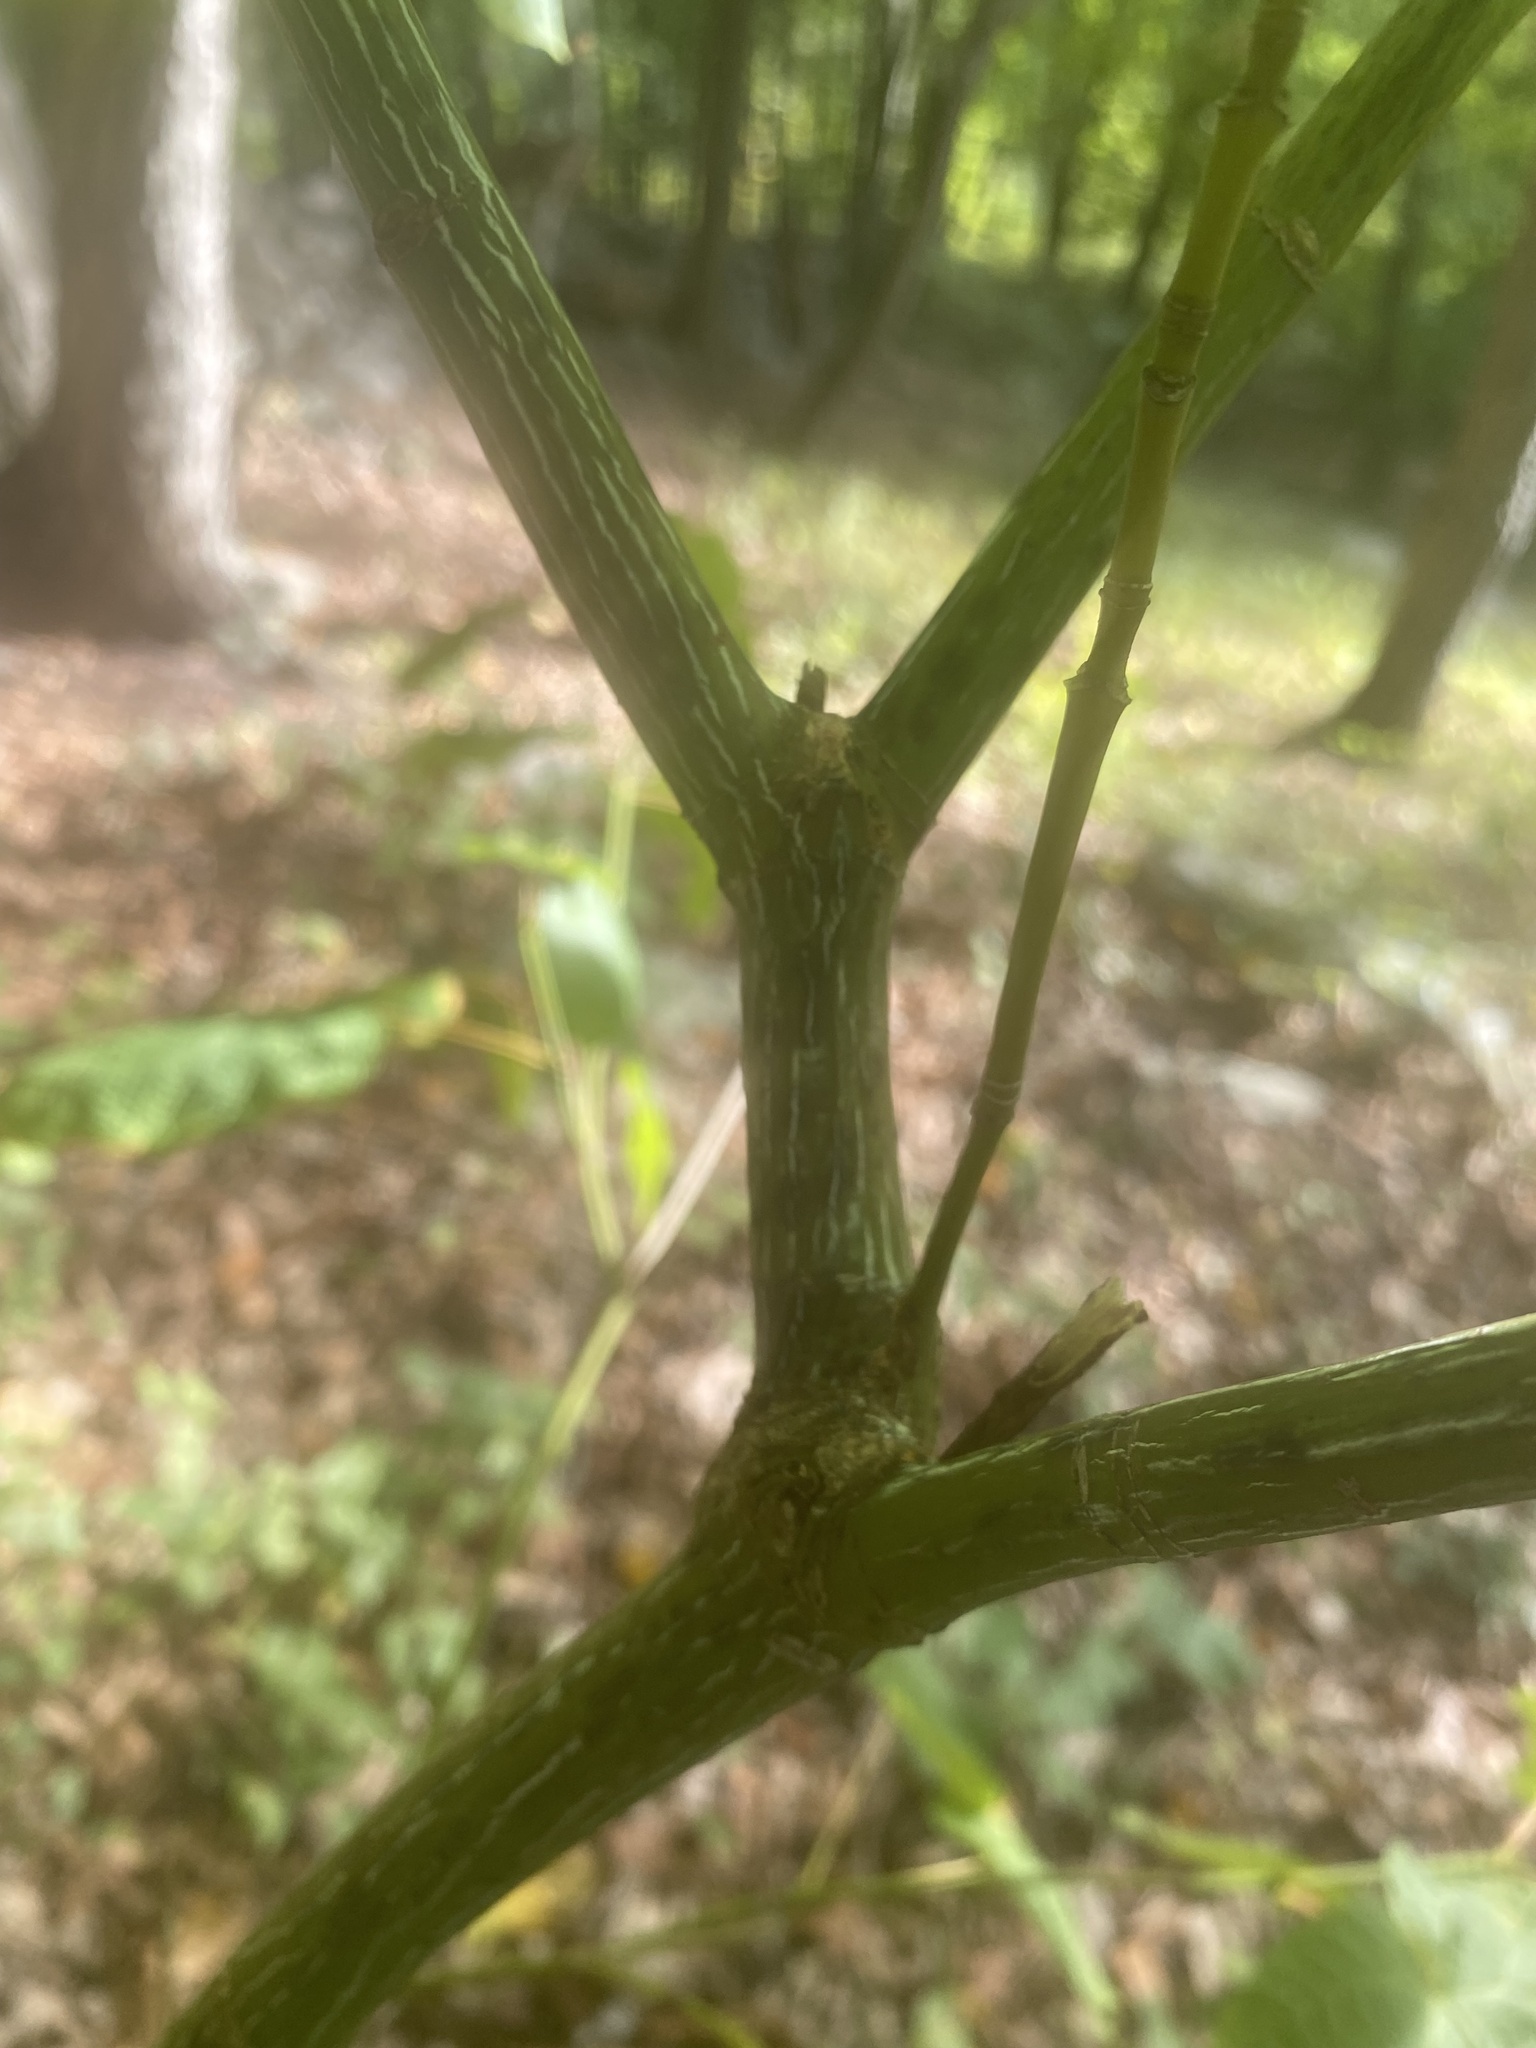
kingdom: Plantae
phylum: Tracheophyta
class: Magnoliopsida
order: Sapindales
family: Sapindaceae
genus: Acer
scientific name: Acer pensylvanicum
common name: Moosewood
